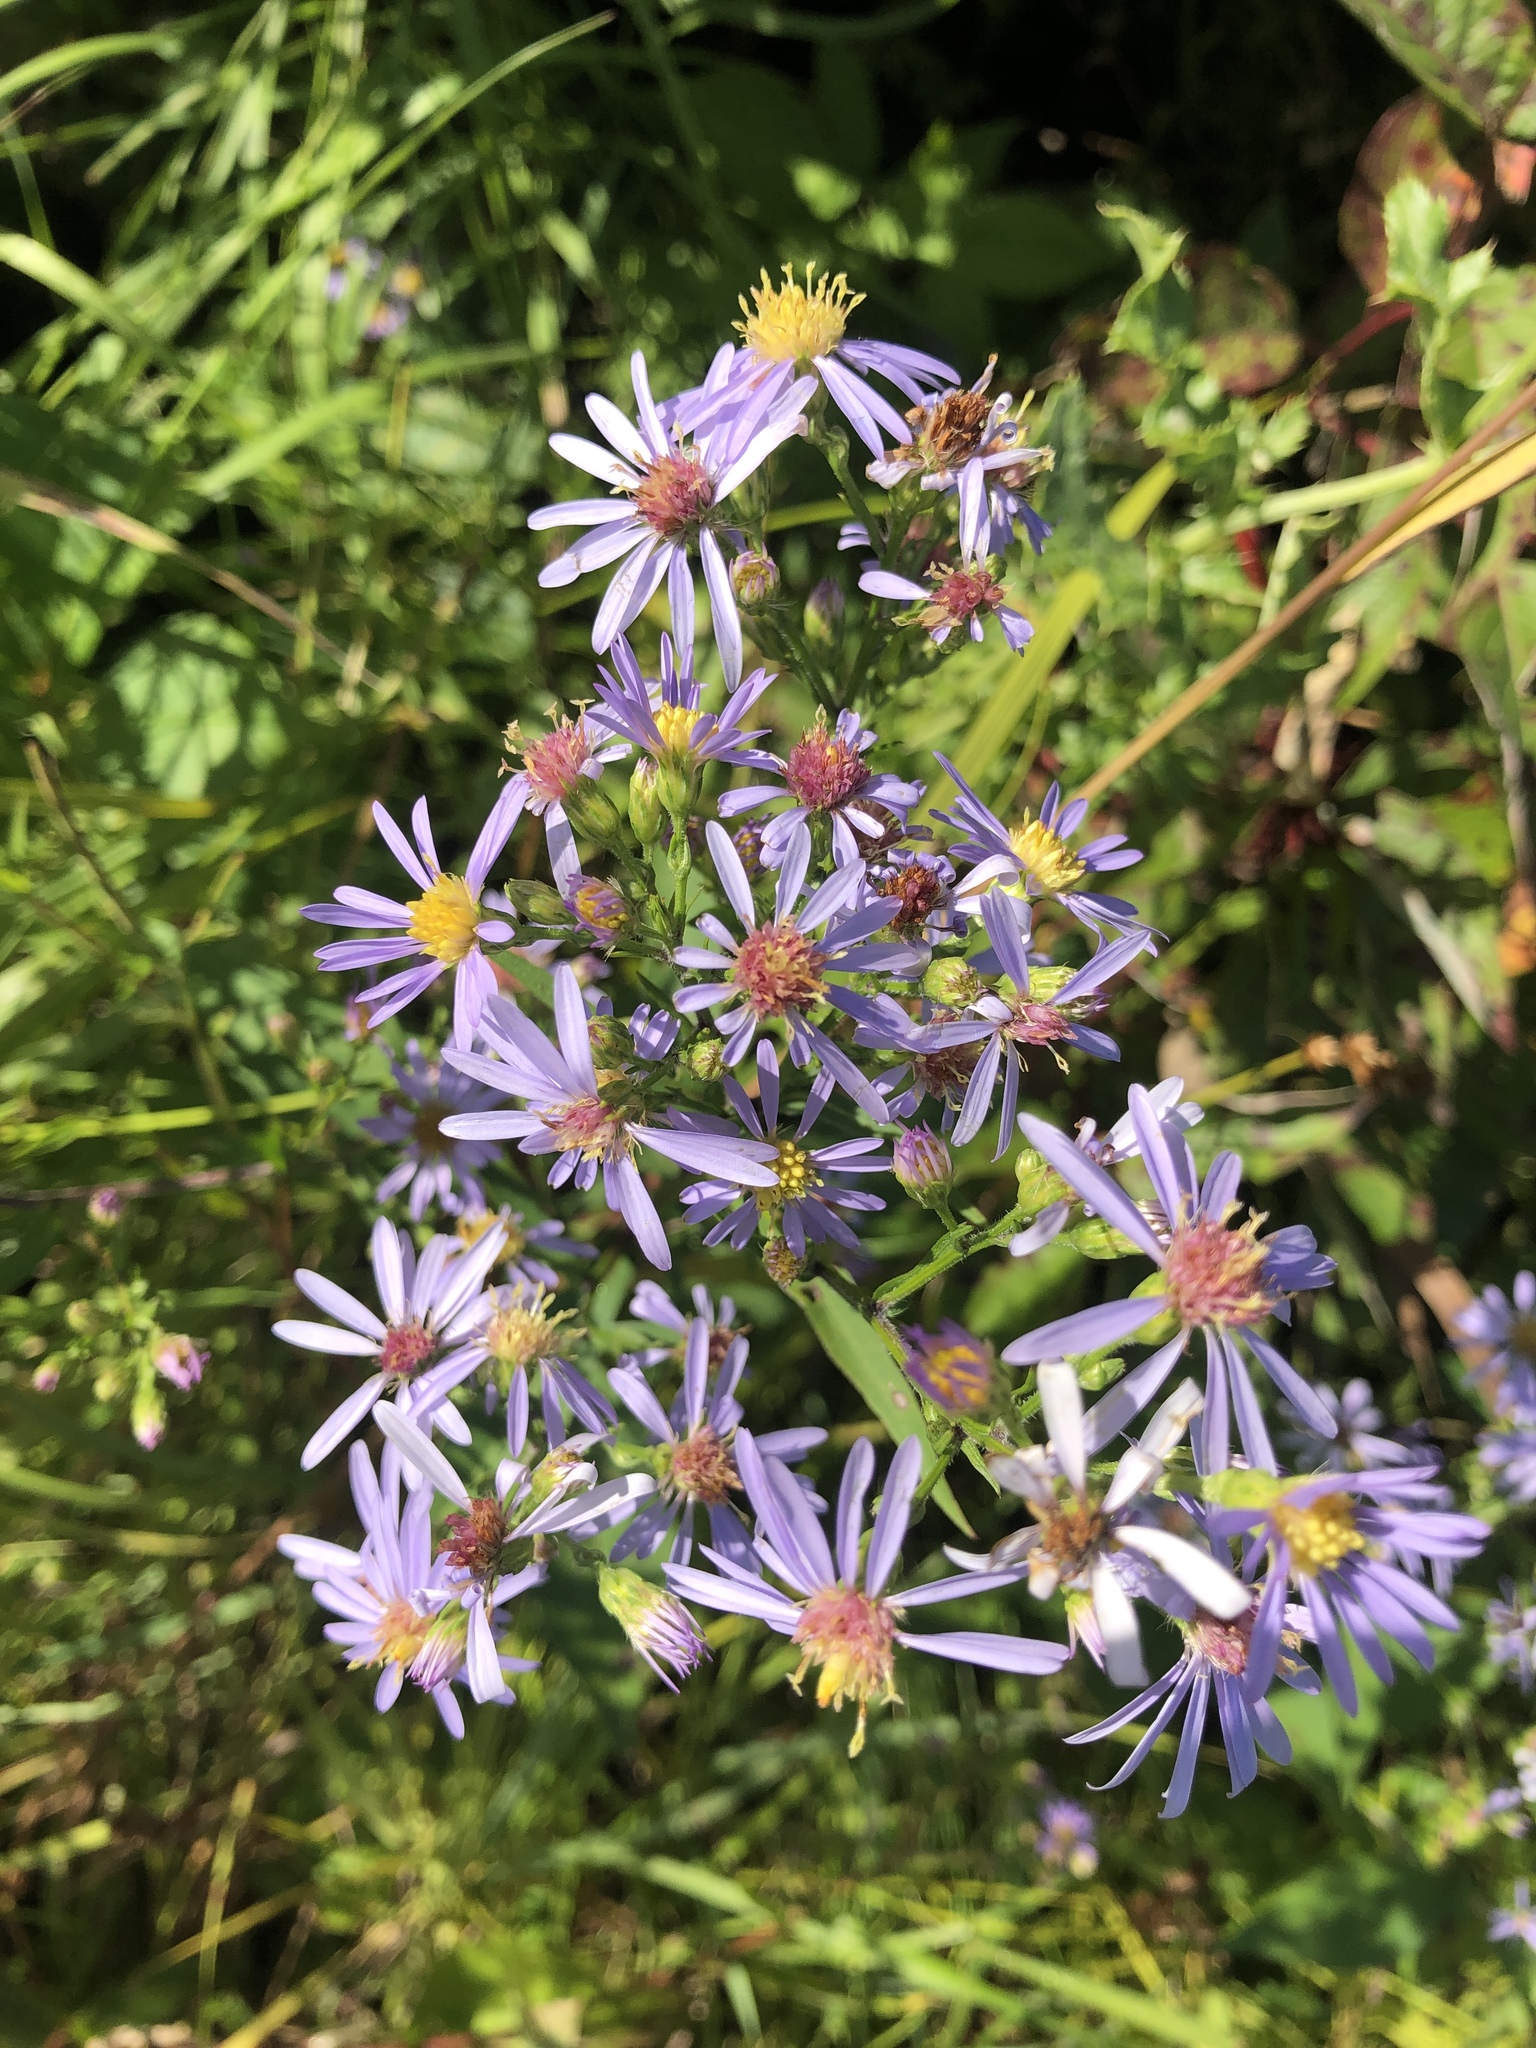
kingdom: Plantae
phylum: Tracheophyta
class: Magnoliopsida
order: Asterales
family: Asteraceae
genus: Symphyotrichum
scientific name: Symphyotrichum ciliolatum
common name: Fringed blue aster
